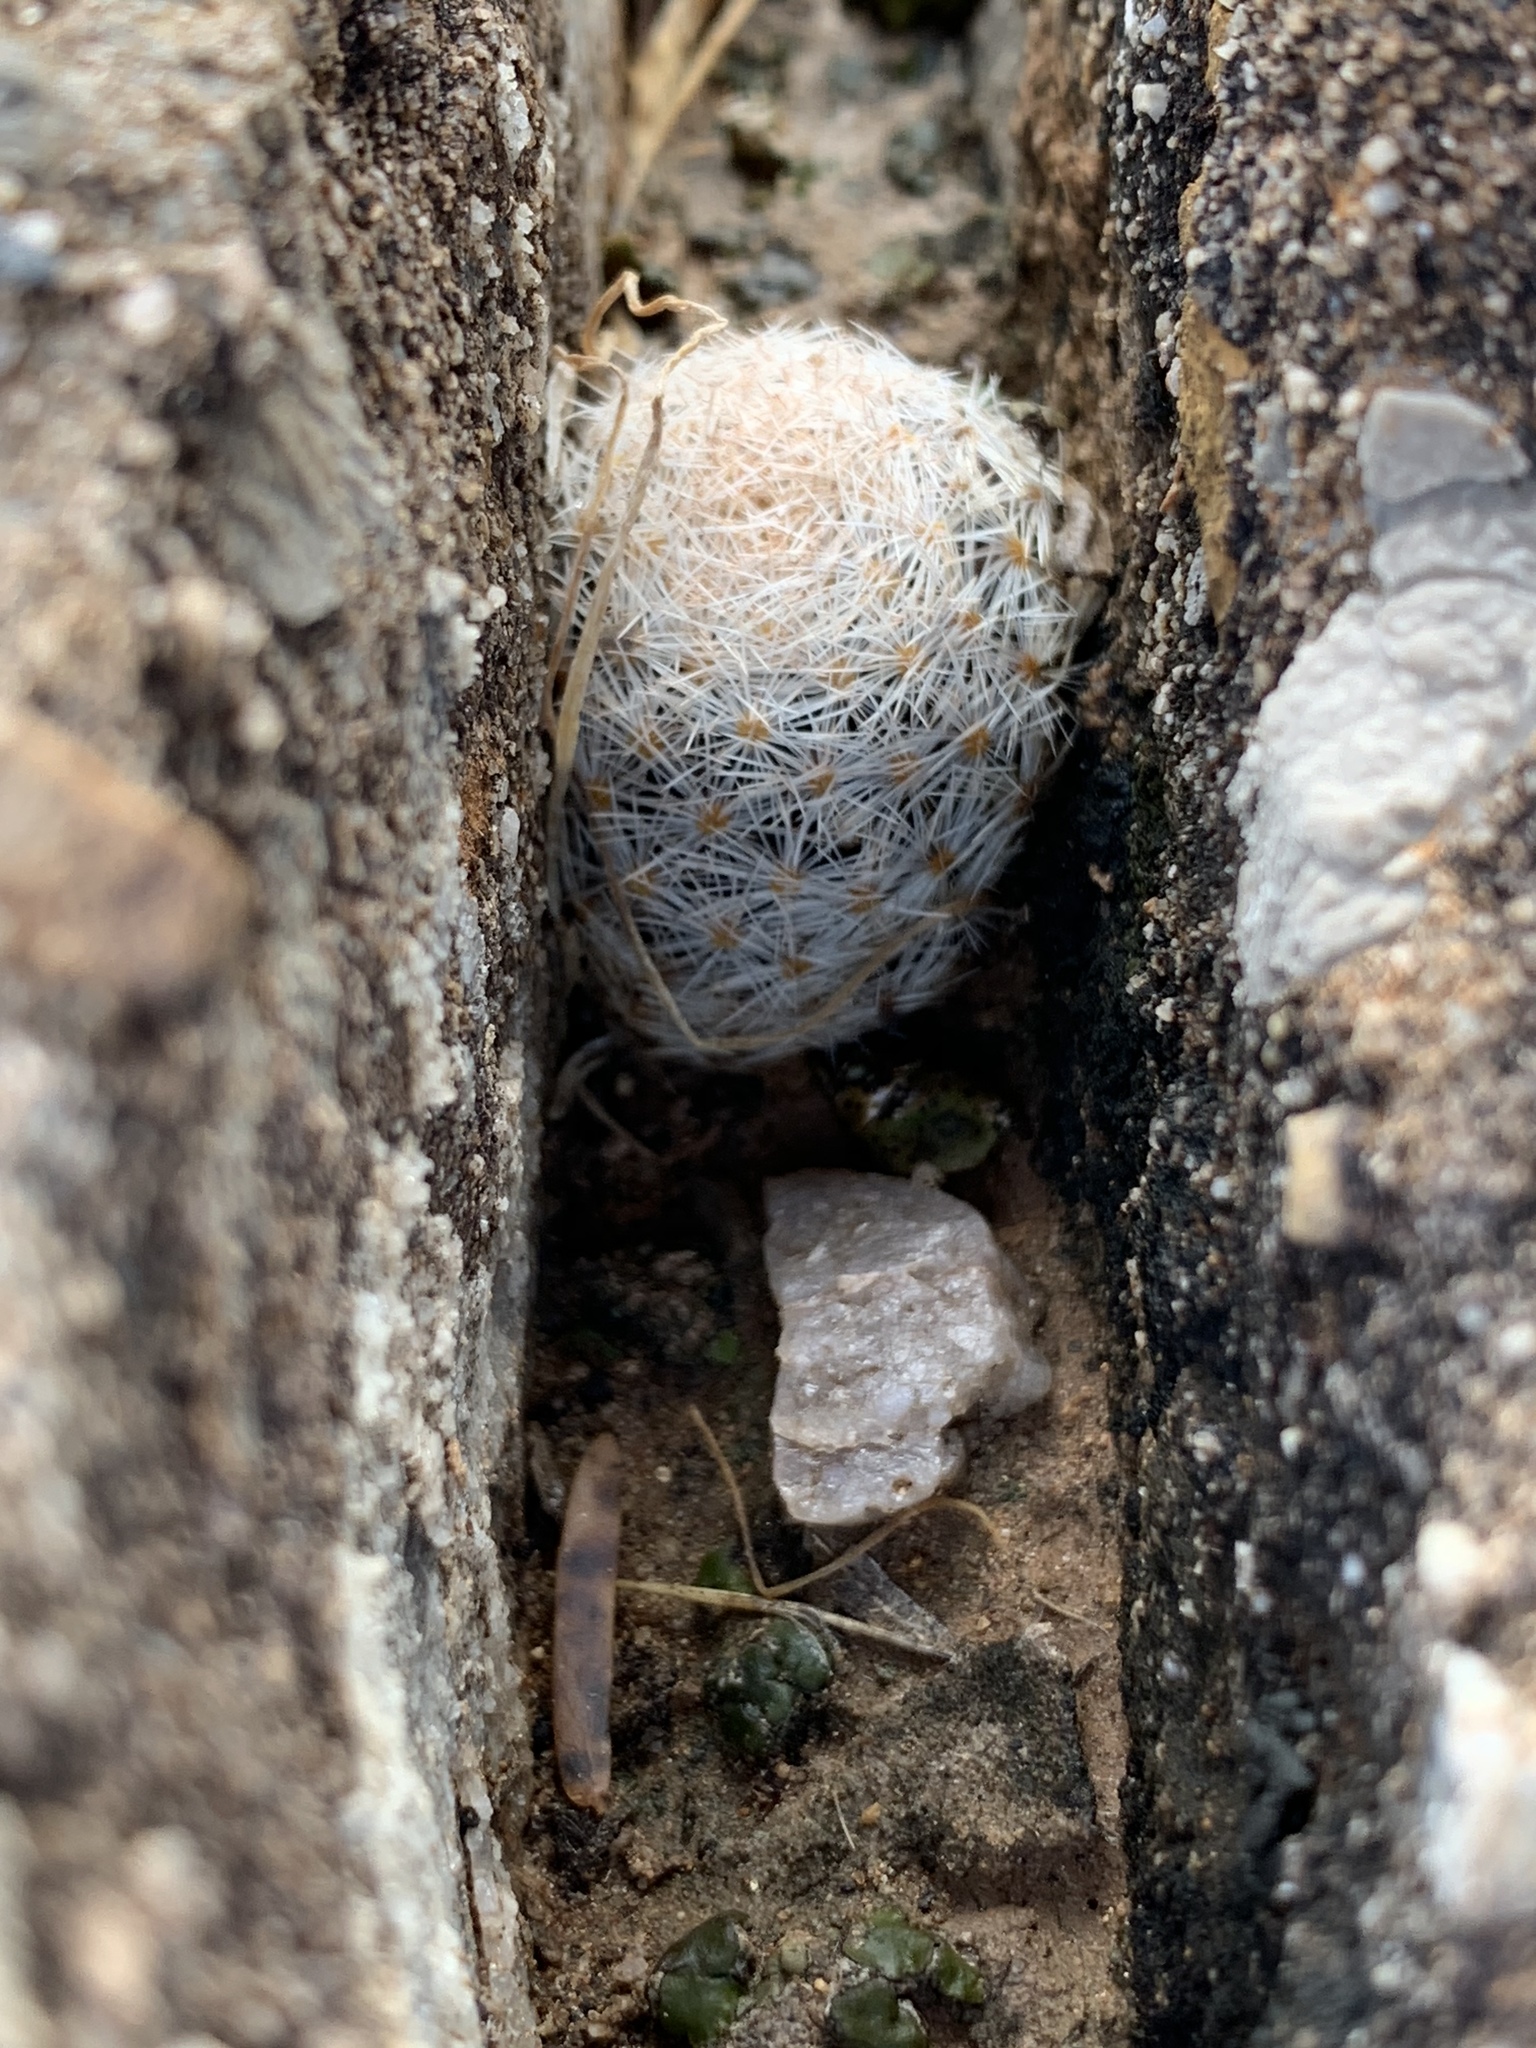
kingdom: Plantae
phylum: Tracheophyta
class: Magnoliopsida
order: Caryophyllales
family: Cactaceae
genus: Mammillaria
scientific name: Mammillaria lasiacantha
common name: Lace-spine nipple cactus
